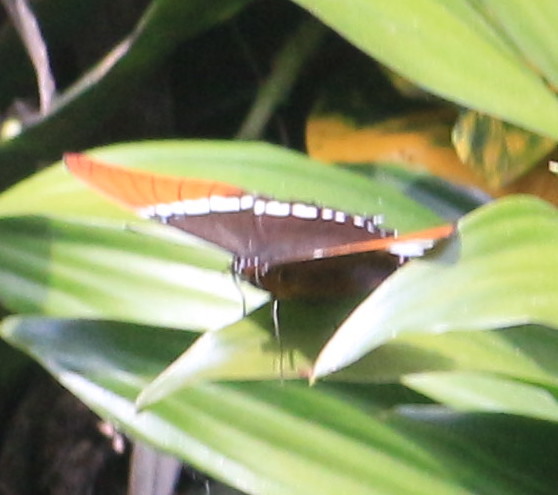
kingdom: Animalia
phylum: Arthropoda
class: Insecta
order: Lepidoptera
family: Nymphalidae
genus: Siproeta
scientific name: Siproeta epaphus
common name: Rusty-tipped page
